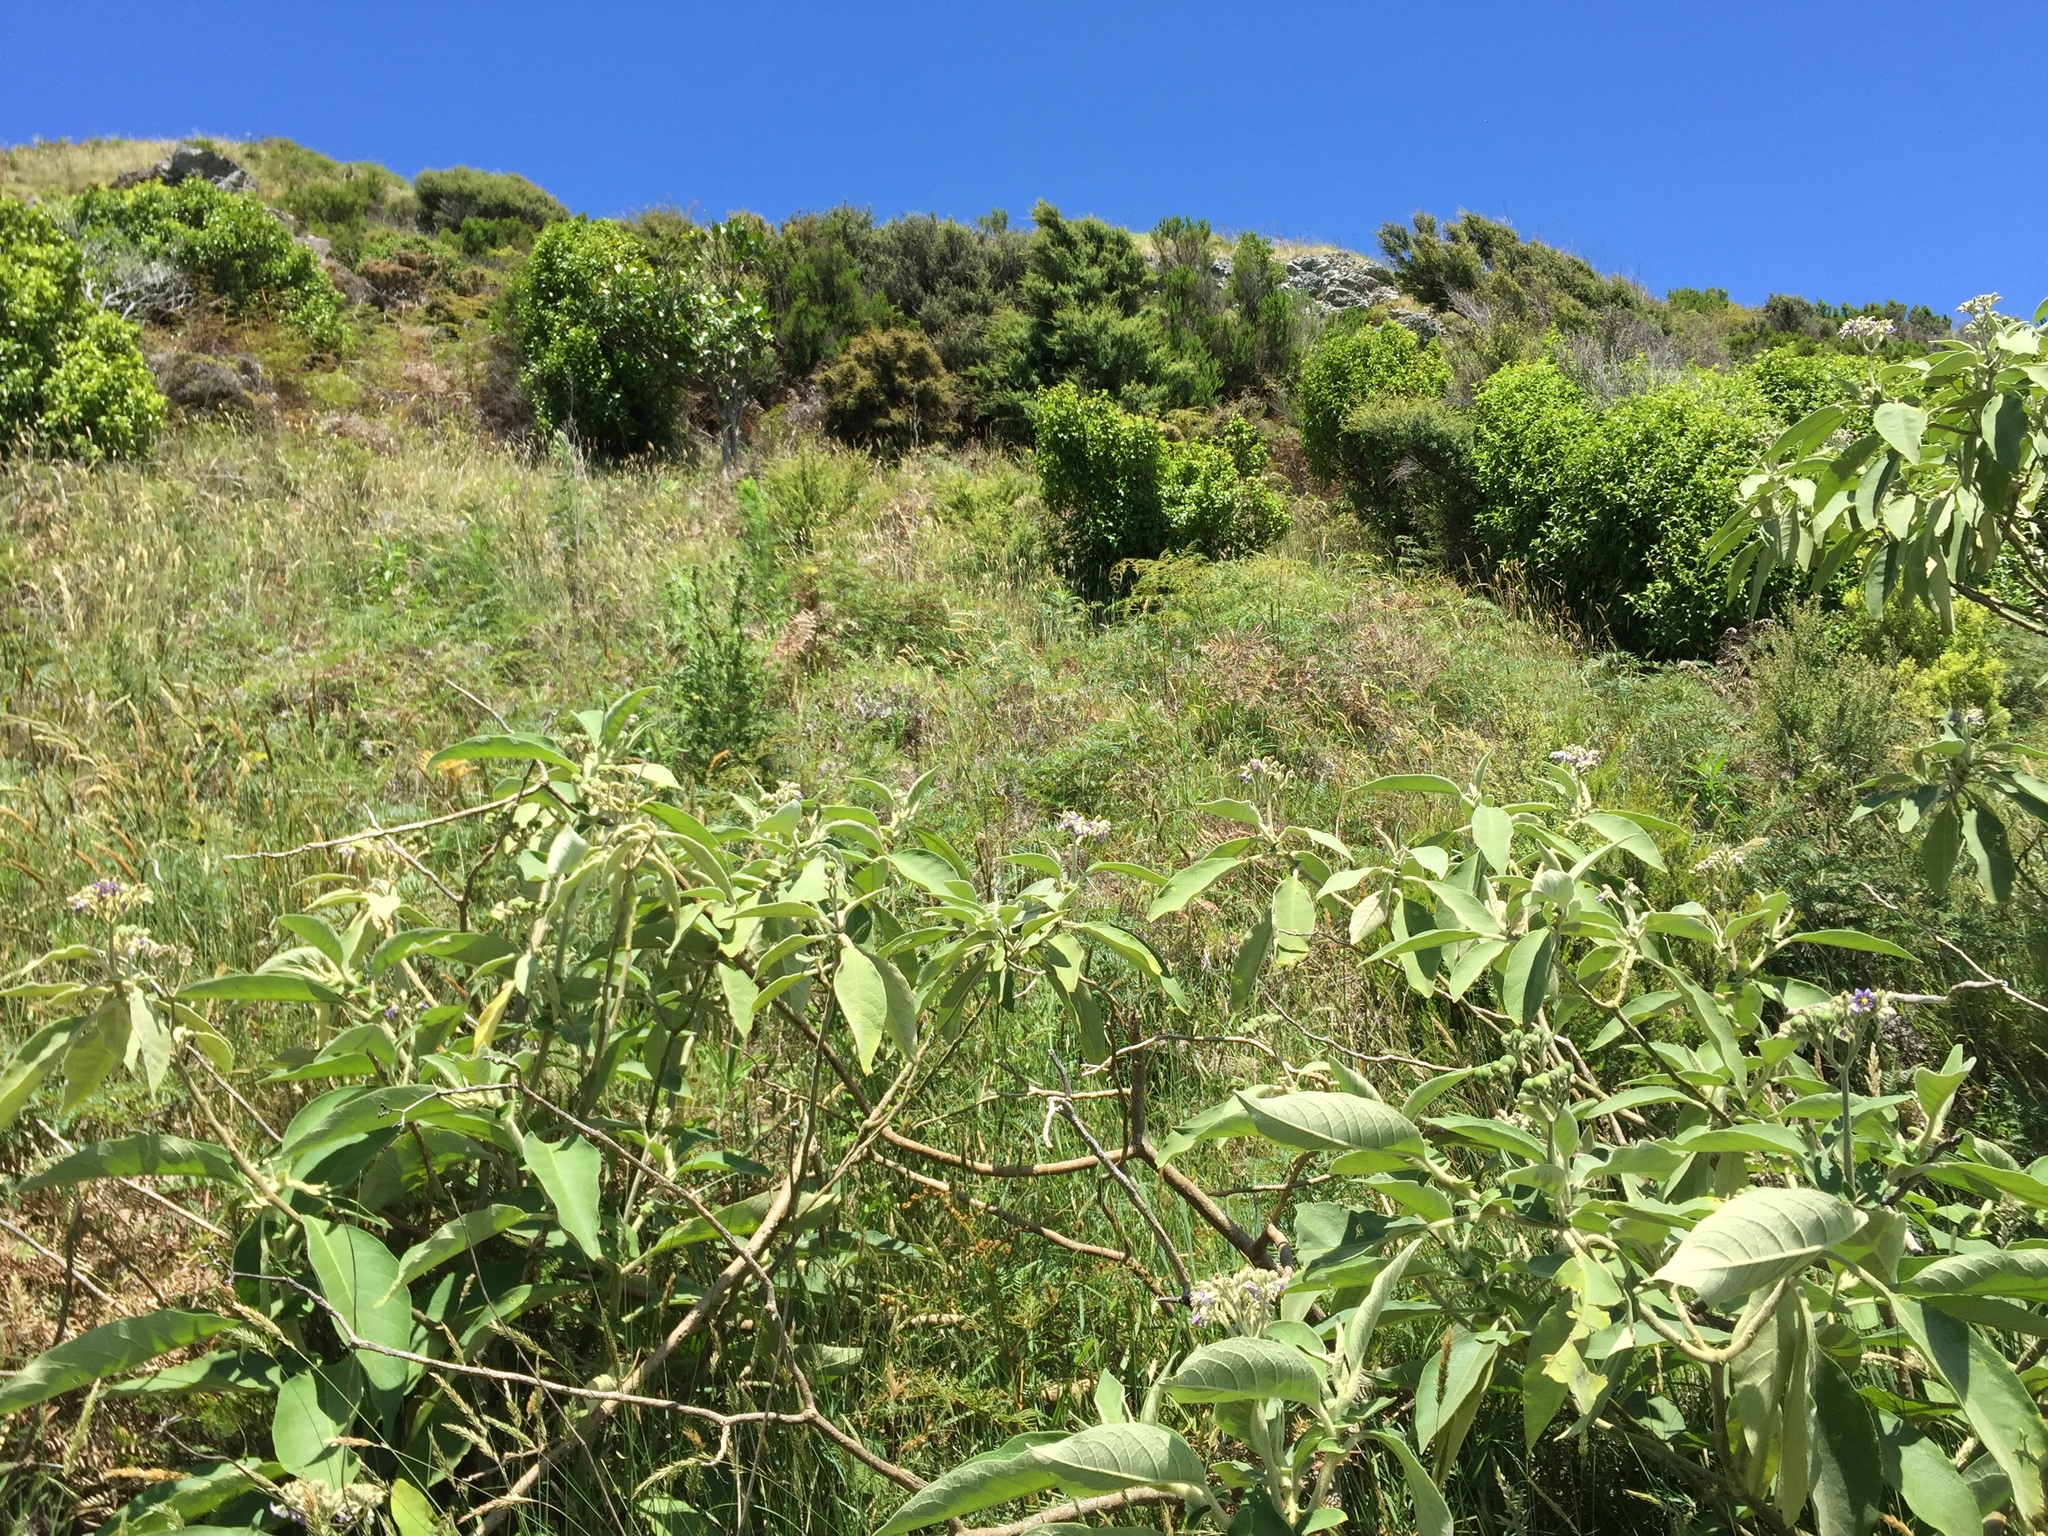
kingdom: Plantae
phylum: Tracheophyta
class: Magnoliopsida
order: Solanales
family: Solanaceae
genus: Solanum
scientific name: Solanum mauritianum
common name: Earleaf nightshade
